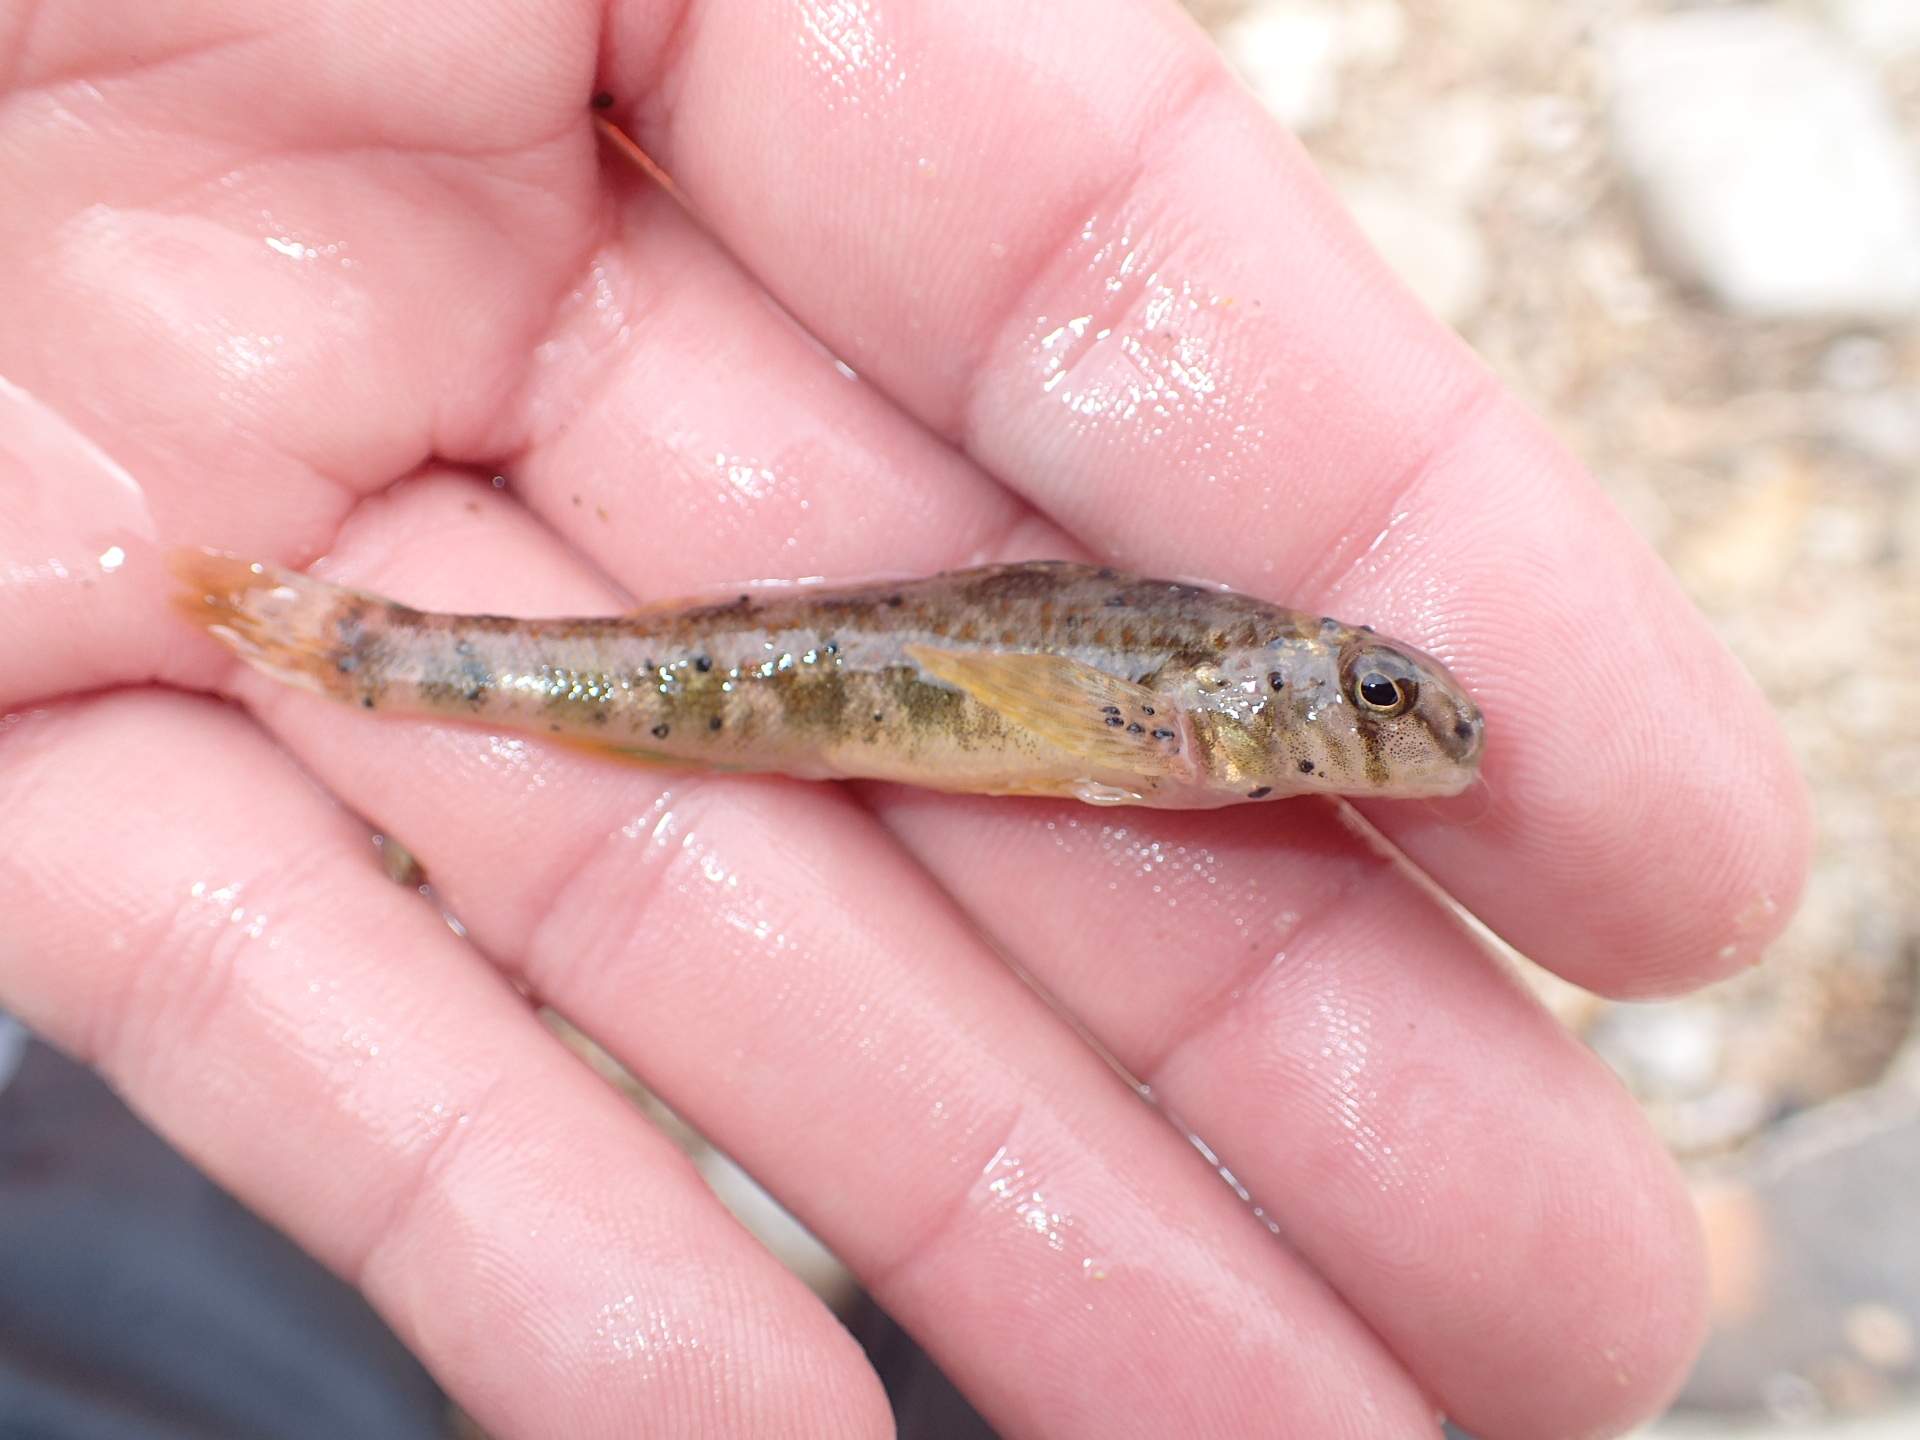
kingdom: Animalia
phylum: Chordata
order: Perciformes
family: Percidae
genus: Etheostoma
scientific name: Etheostoma blennioides
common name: Greenside darter
